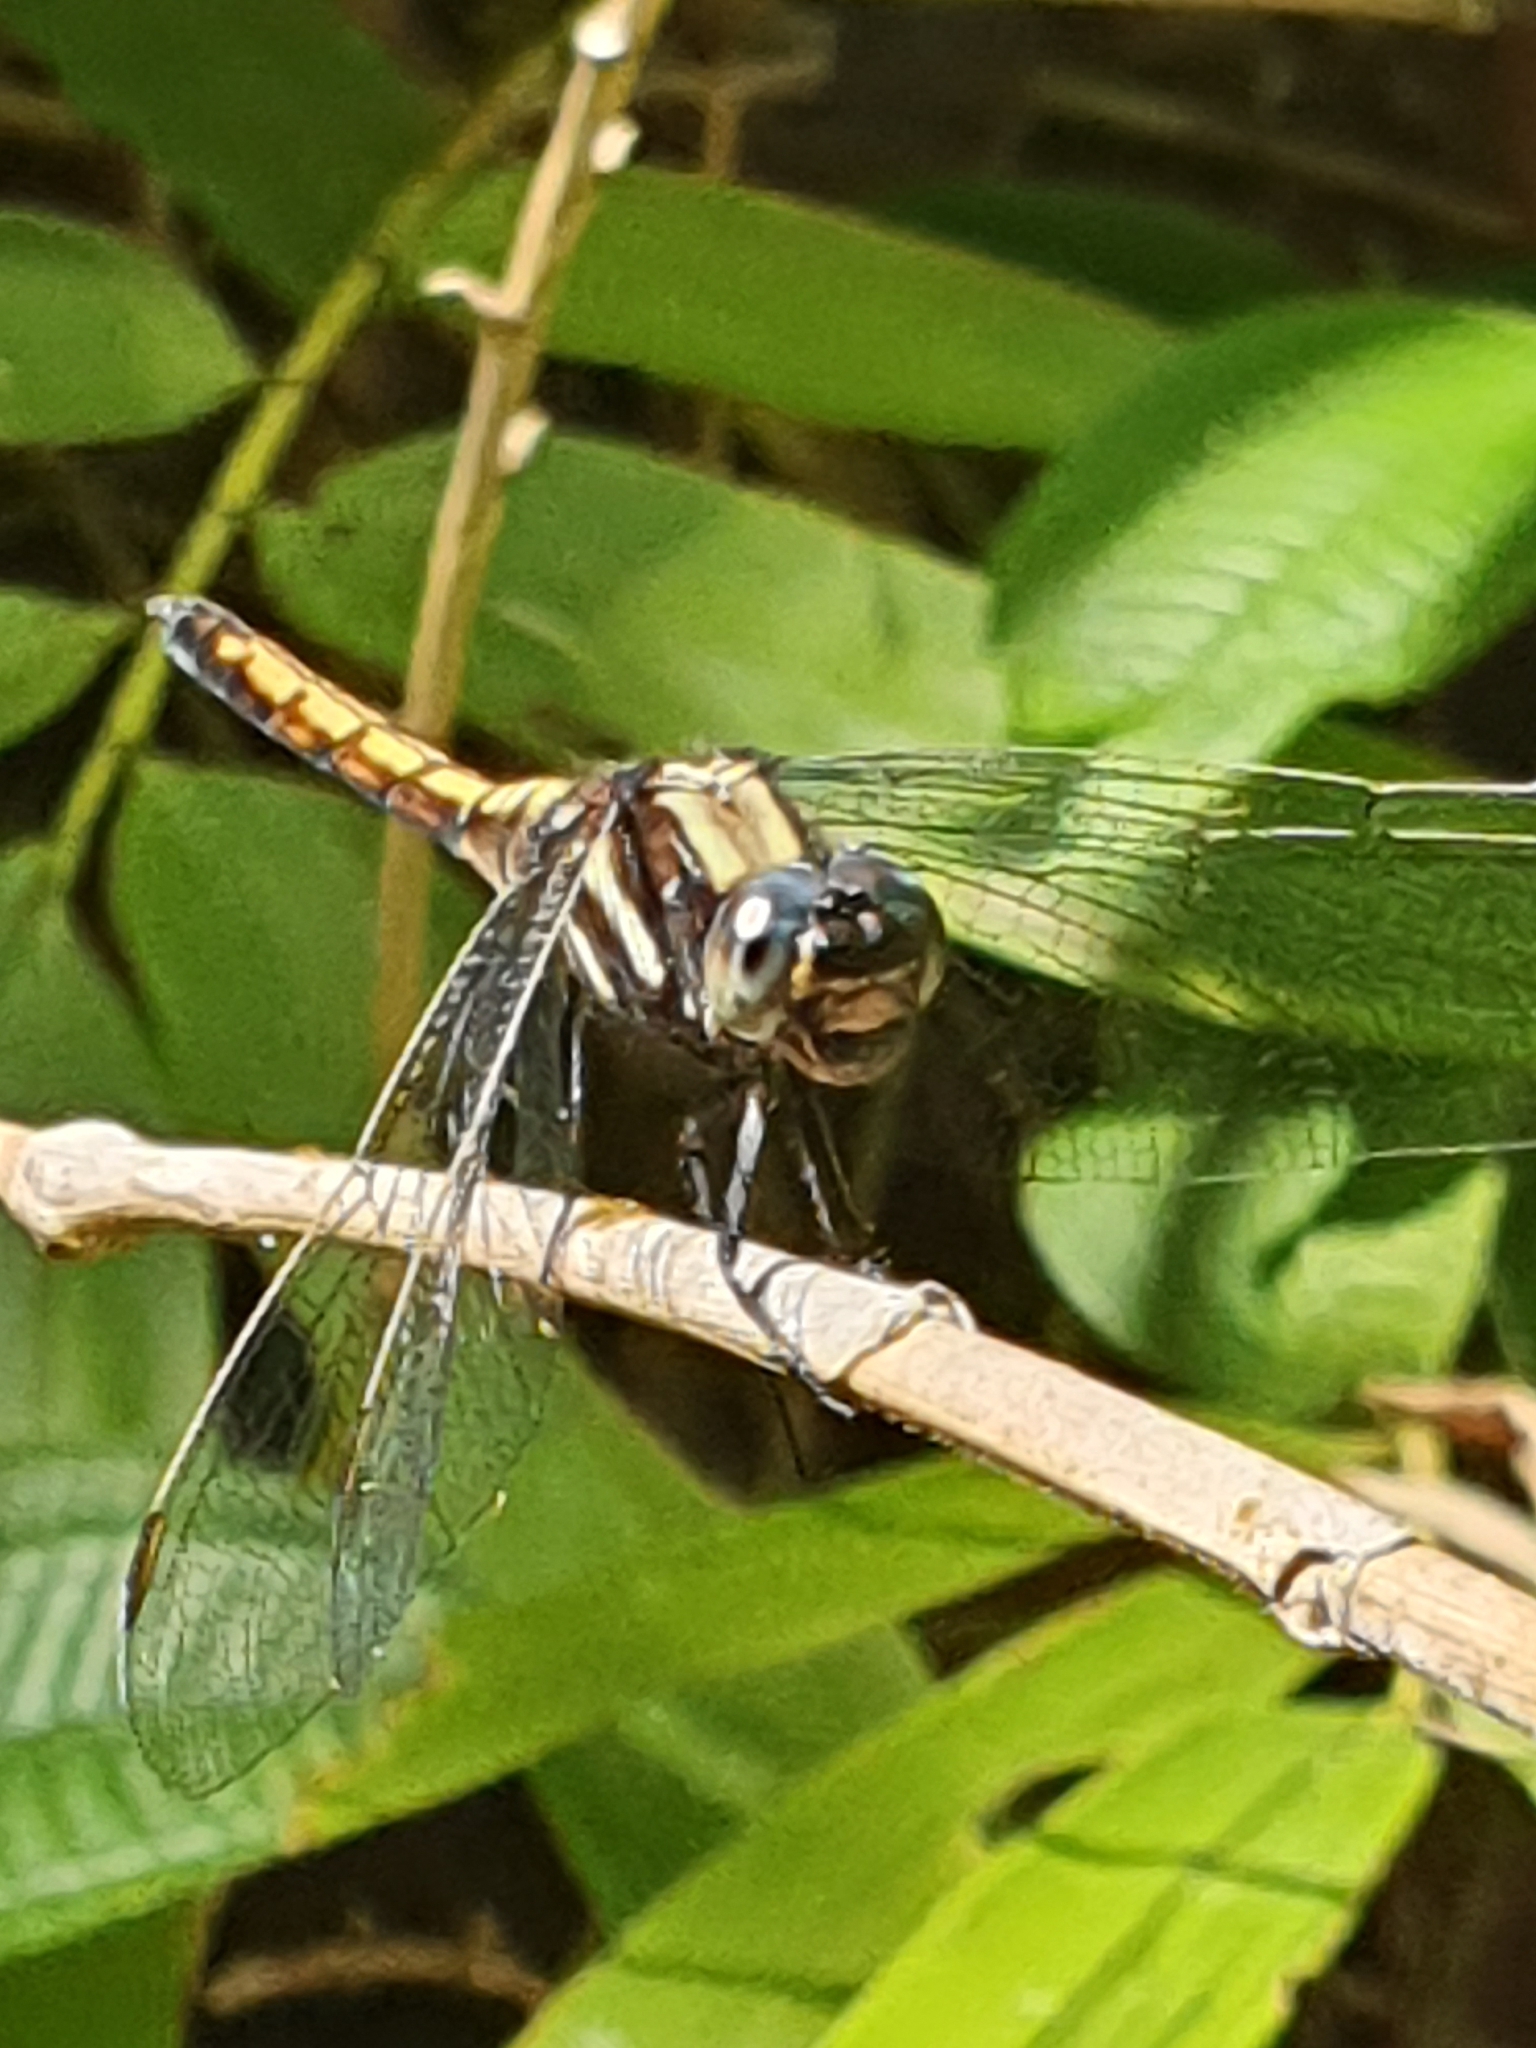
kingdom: Animalia
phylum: Arthropoda
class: Insecta
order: Odonata
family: Libellulidae
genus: Orthetrum
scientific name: Orthetrum glaucum
